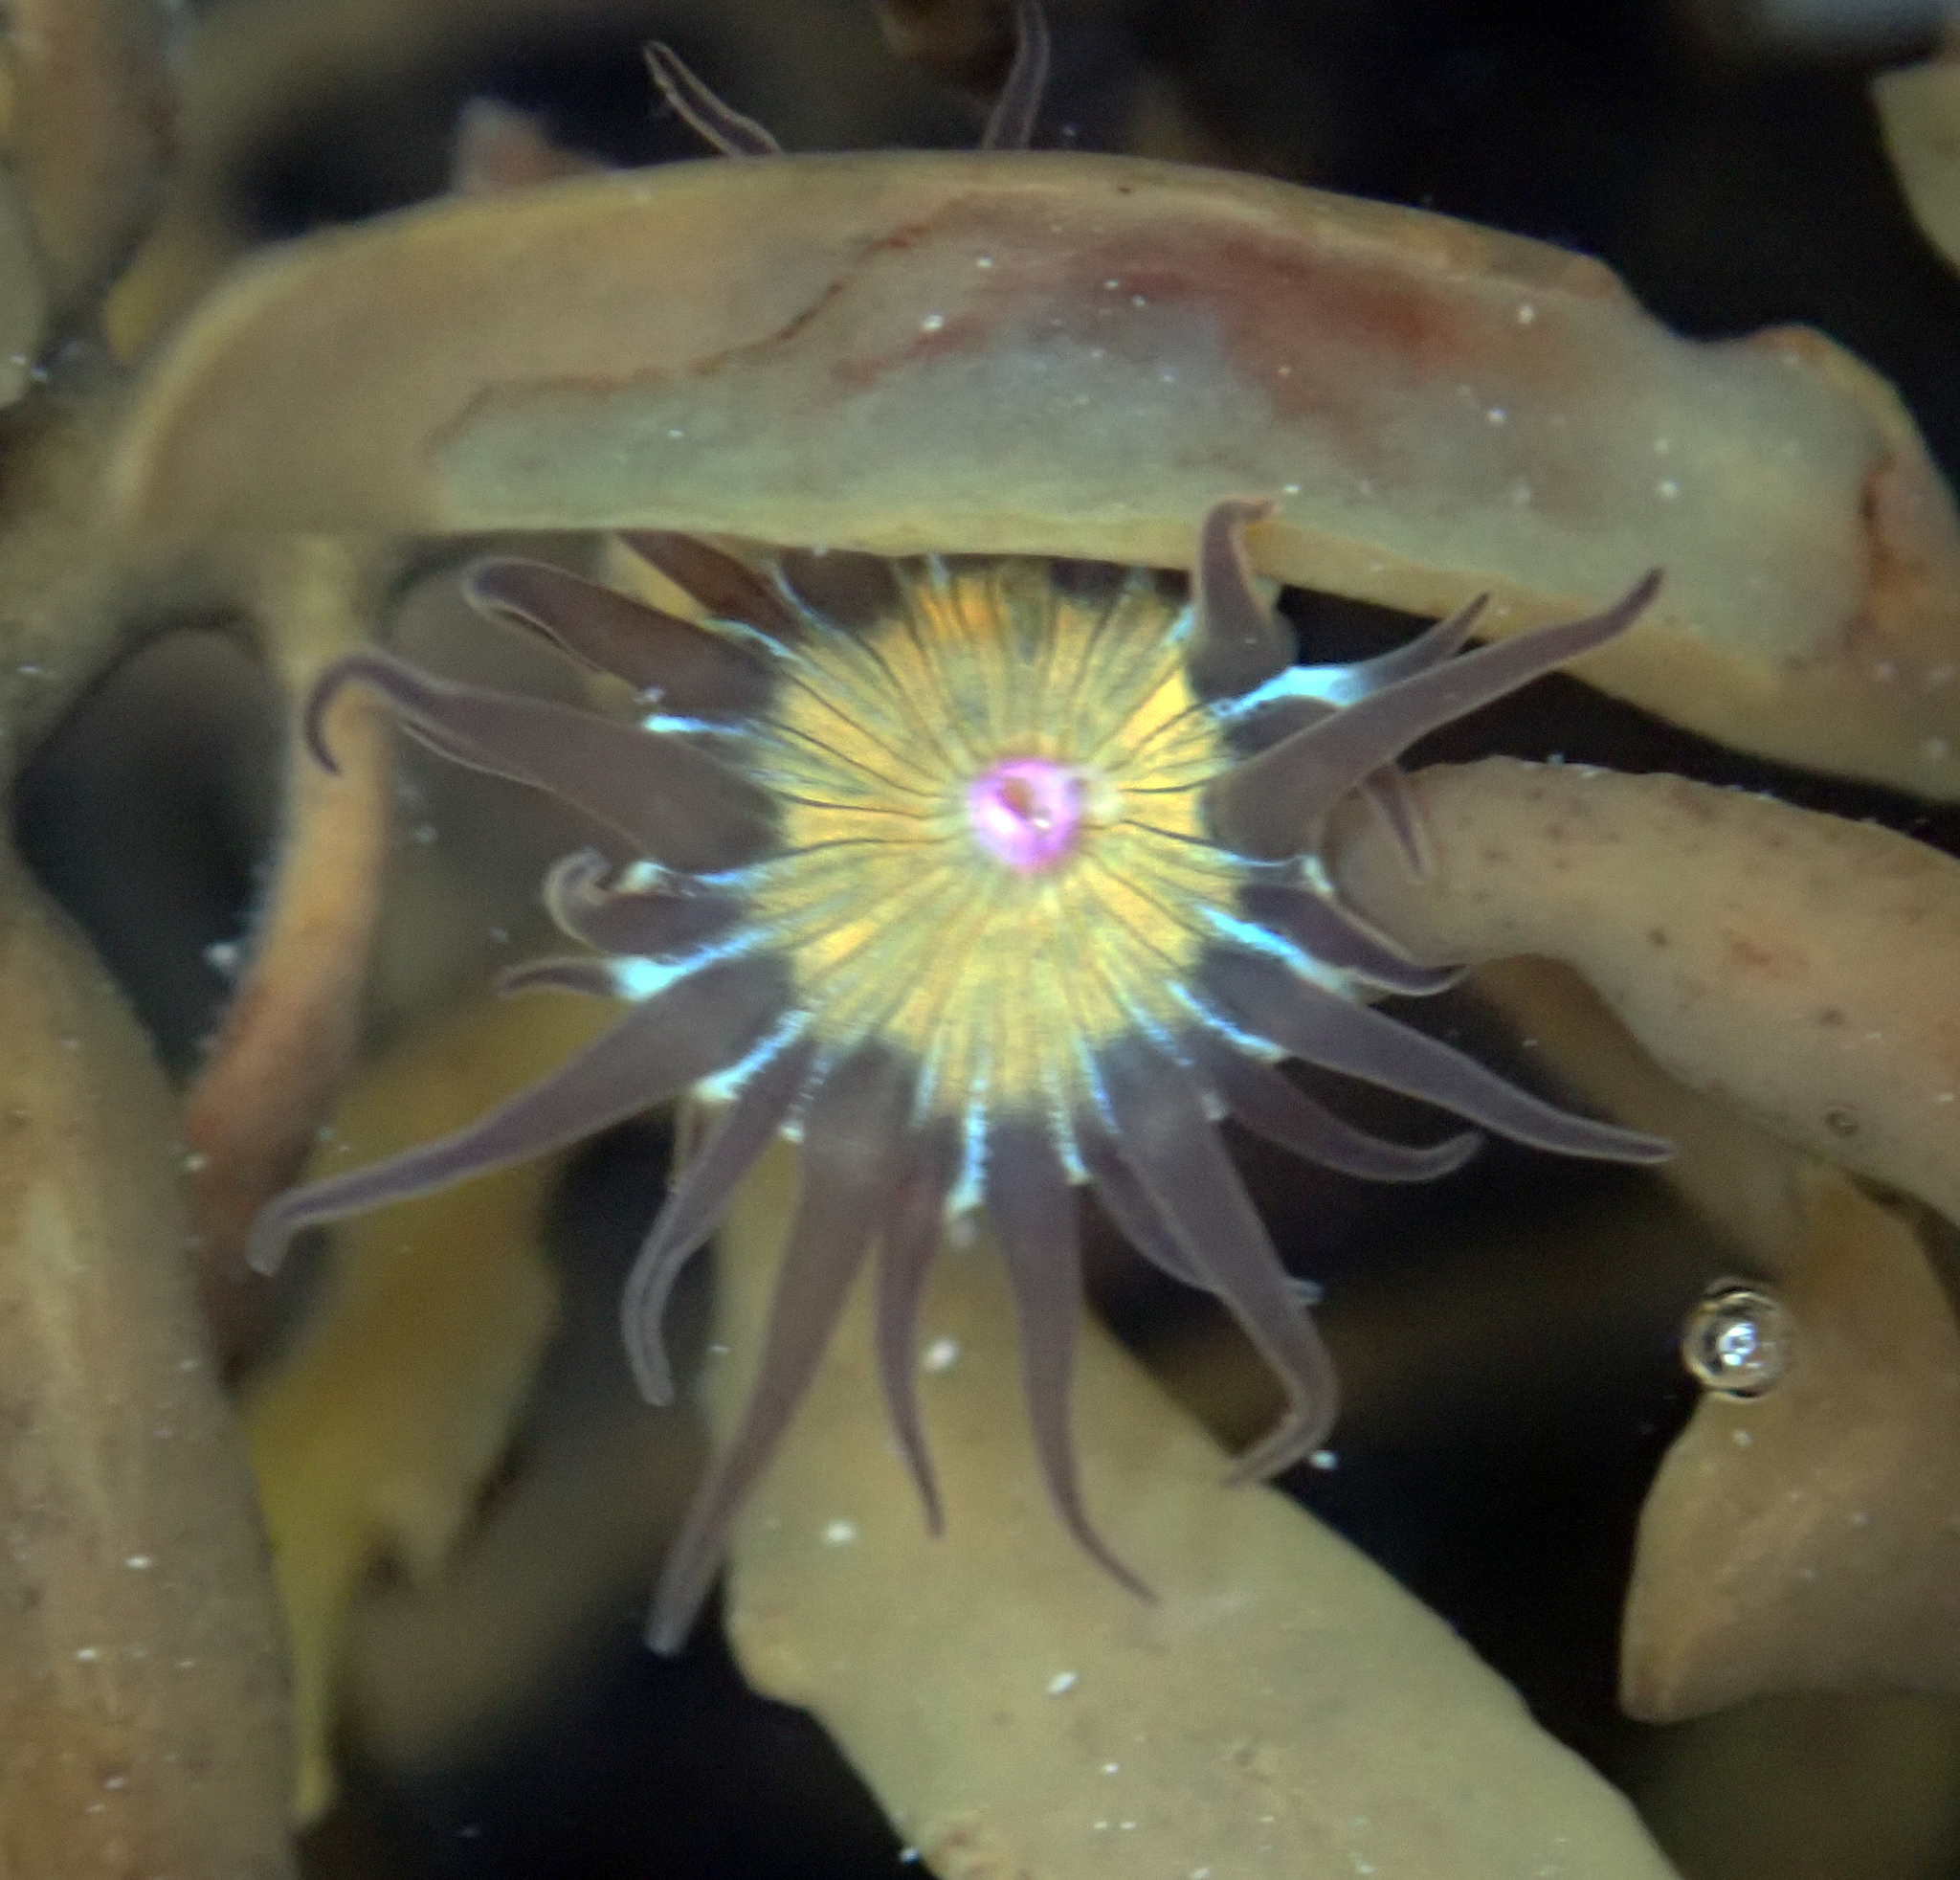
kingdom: Animalia
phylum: Cnidaria
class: Anthozoa
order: Actiniaria
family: Hormathiidae
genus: Handactis
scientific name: Handactis nutrix
